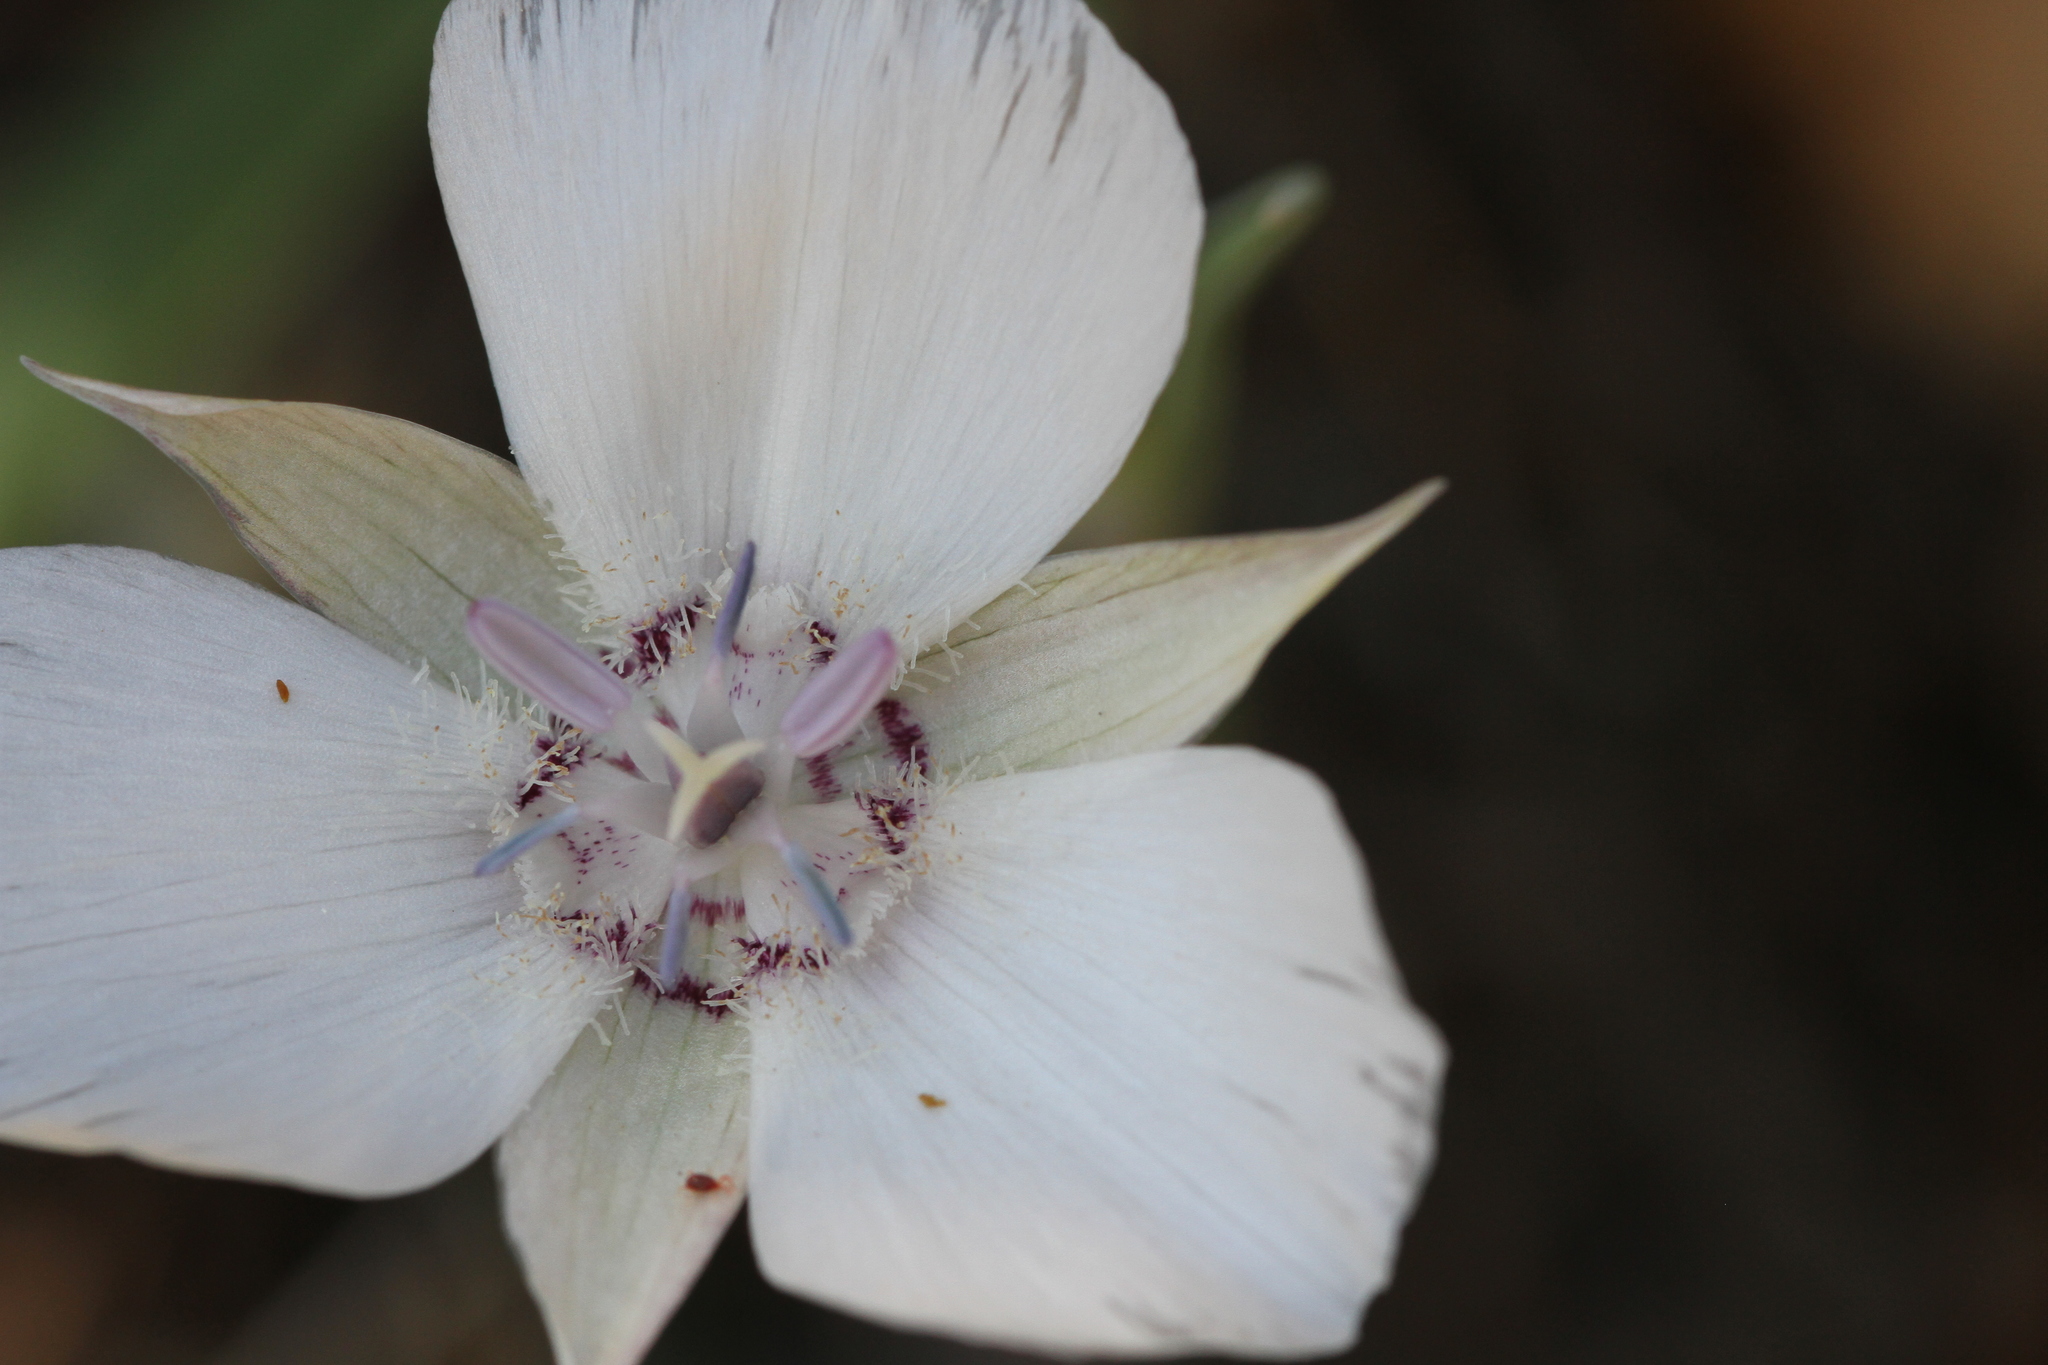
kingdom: Plantae
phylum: Tracheophyta
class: Liliopsida
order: Liliales
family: Liliaceae
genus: Calochortus
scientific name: Calochortus umbellatus
